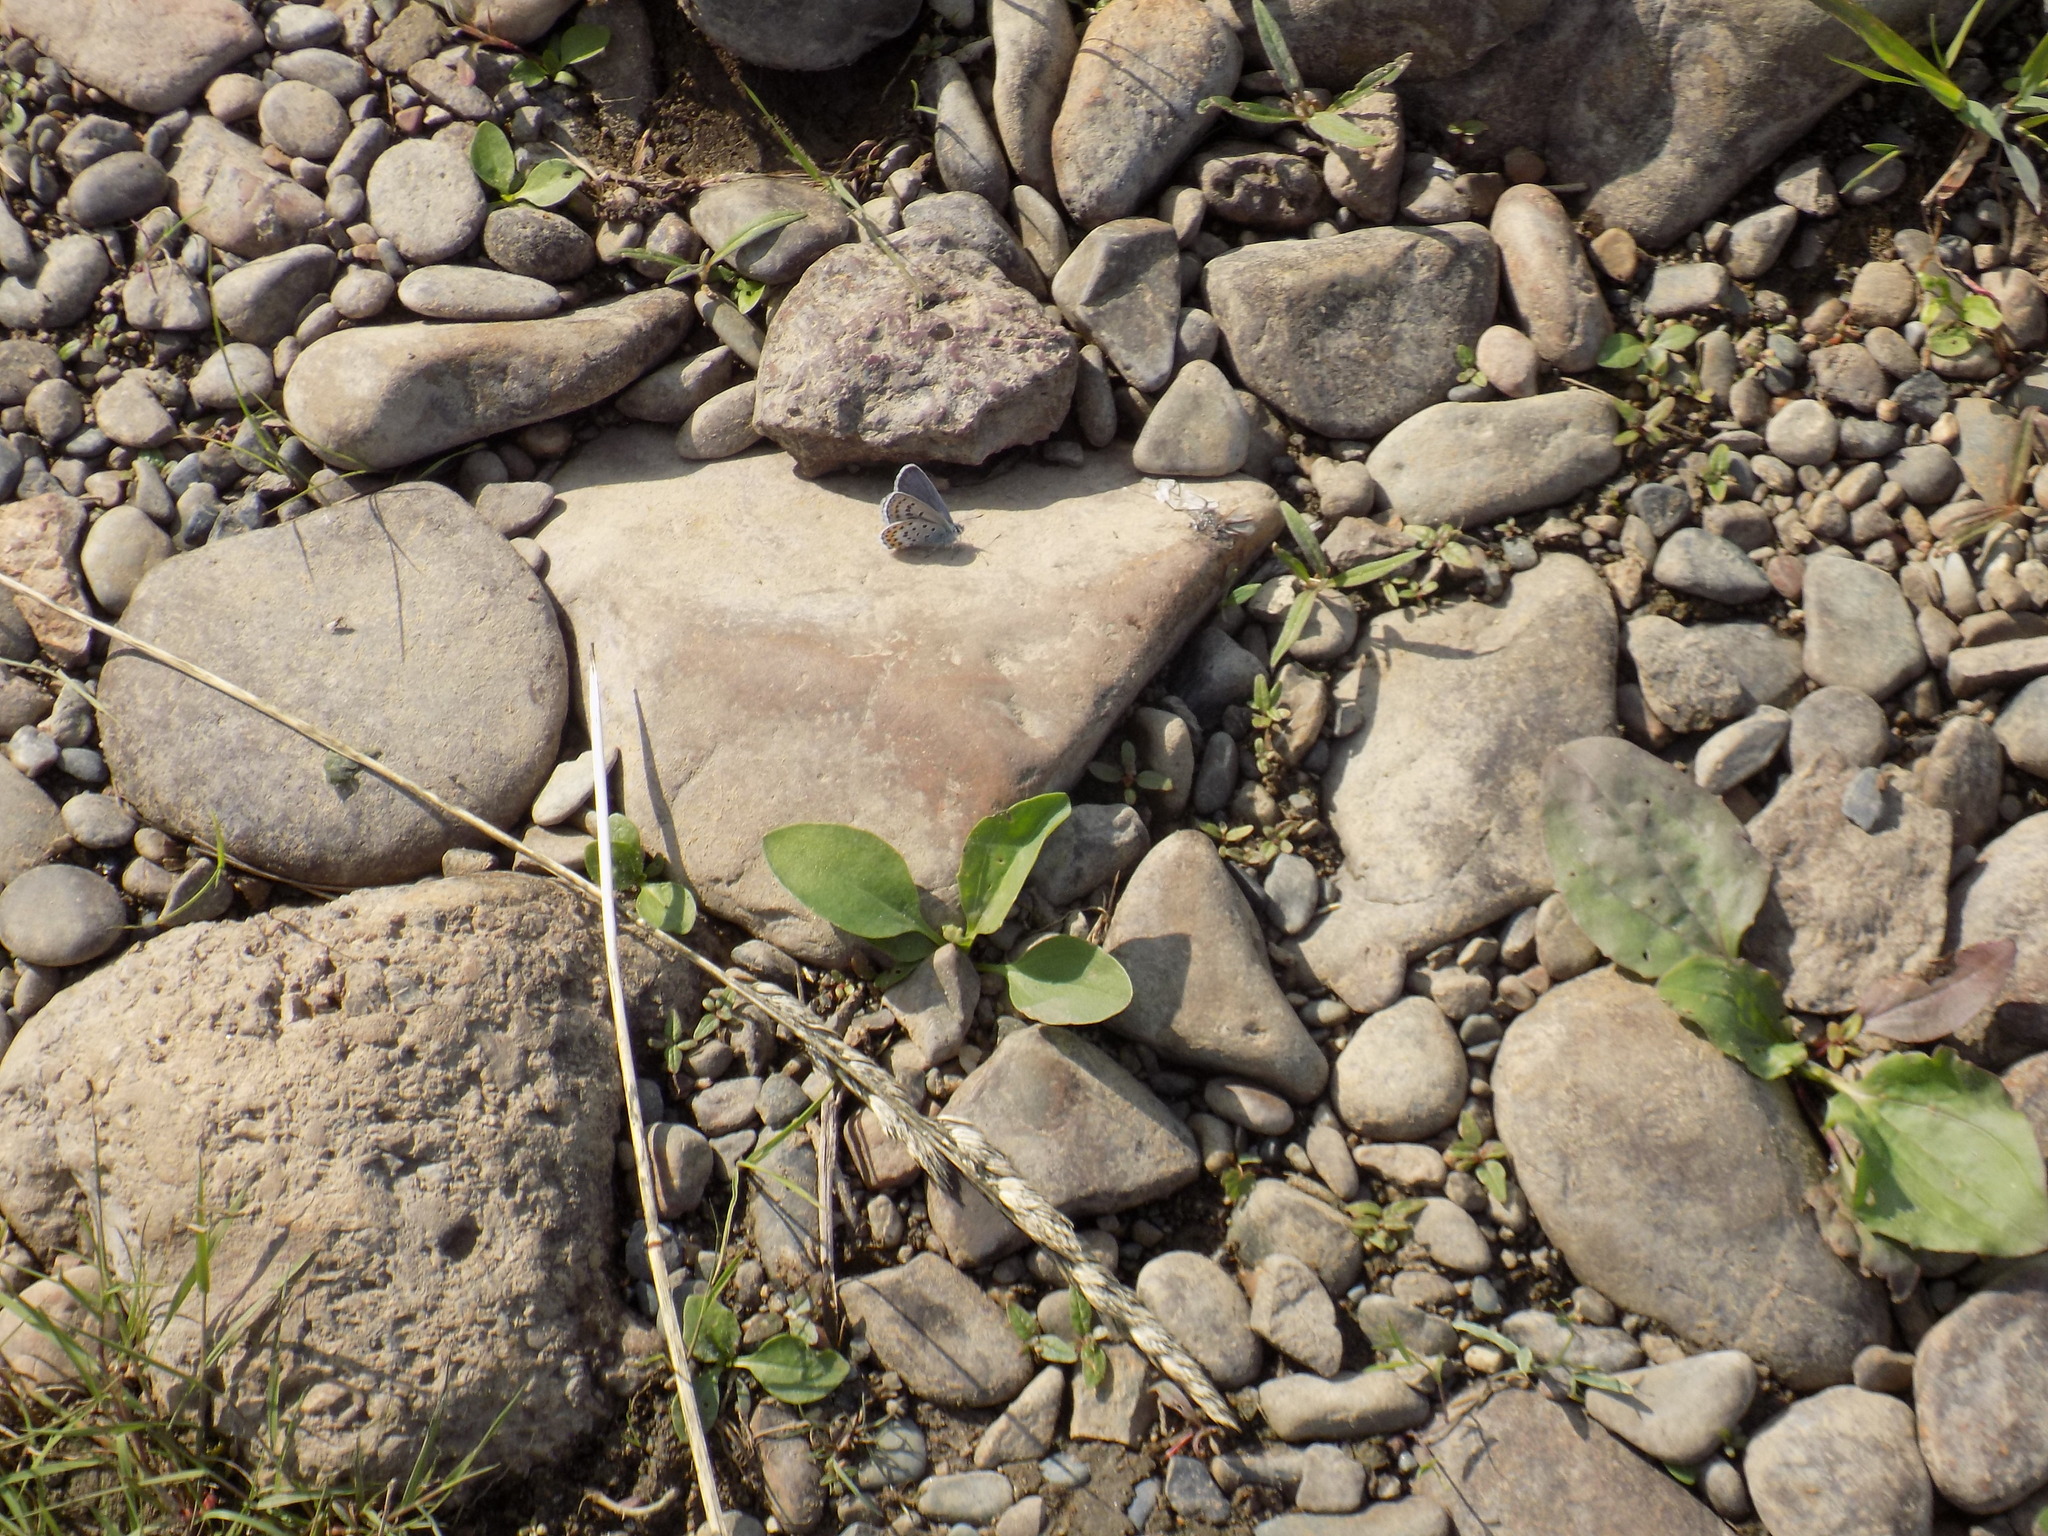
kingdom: Animalia
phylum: Arthropoda
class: Insecta
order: Lepidoptera
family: Lycaenidae
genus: Lycaeides
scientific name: Lycaeides idas
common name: Northern blue
